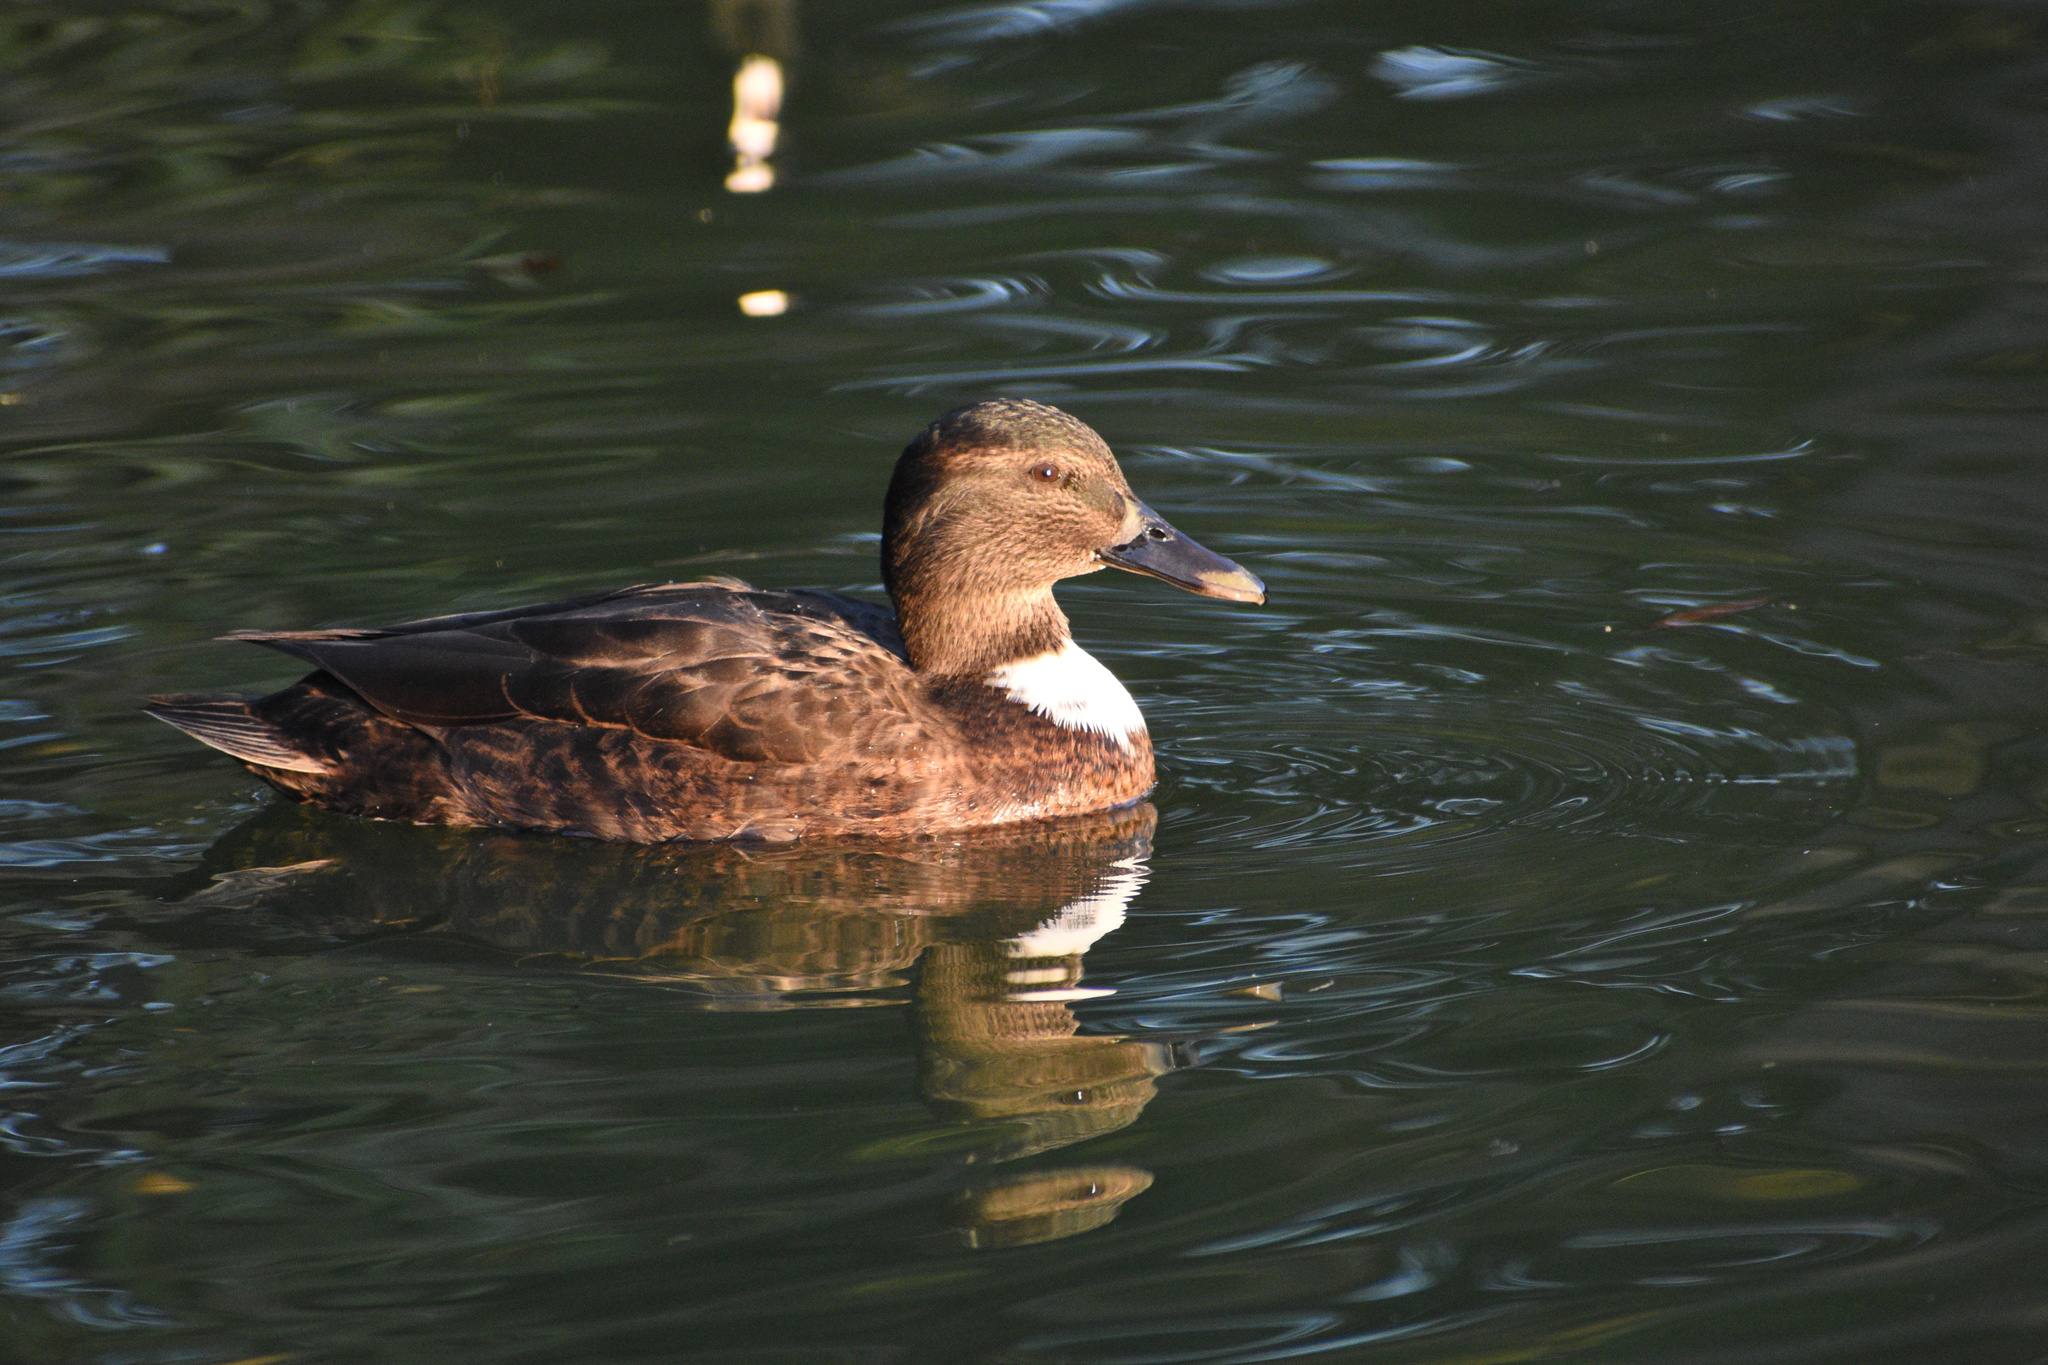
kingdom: Animalia
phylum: Chordata
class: Aves
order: Anseriformes
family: Anatidae
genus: Anas
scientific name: Anas platyrhynchos
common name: Mallard
